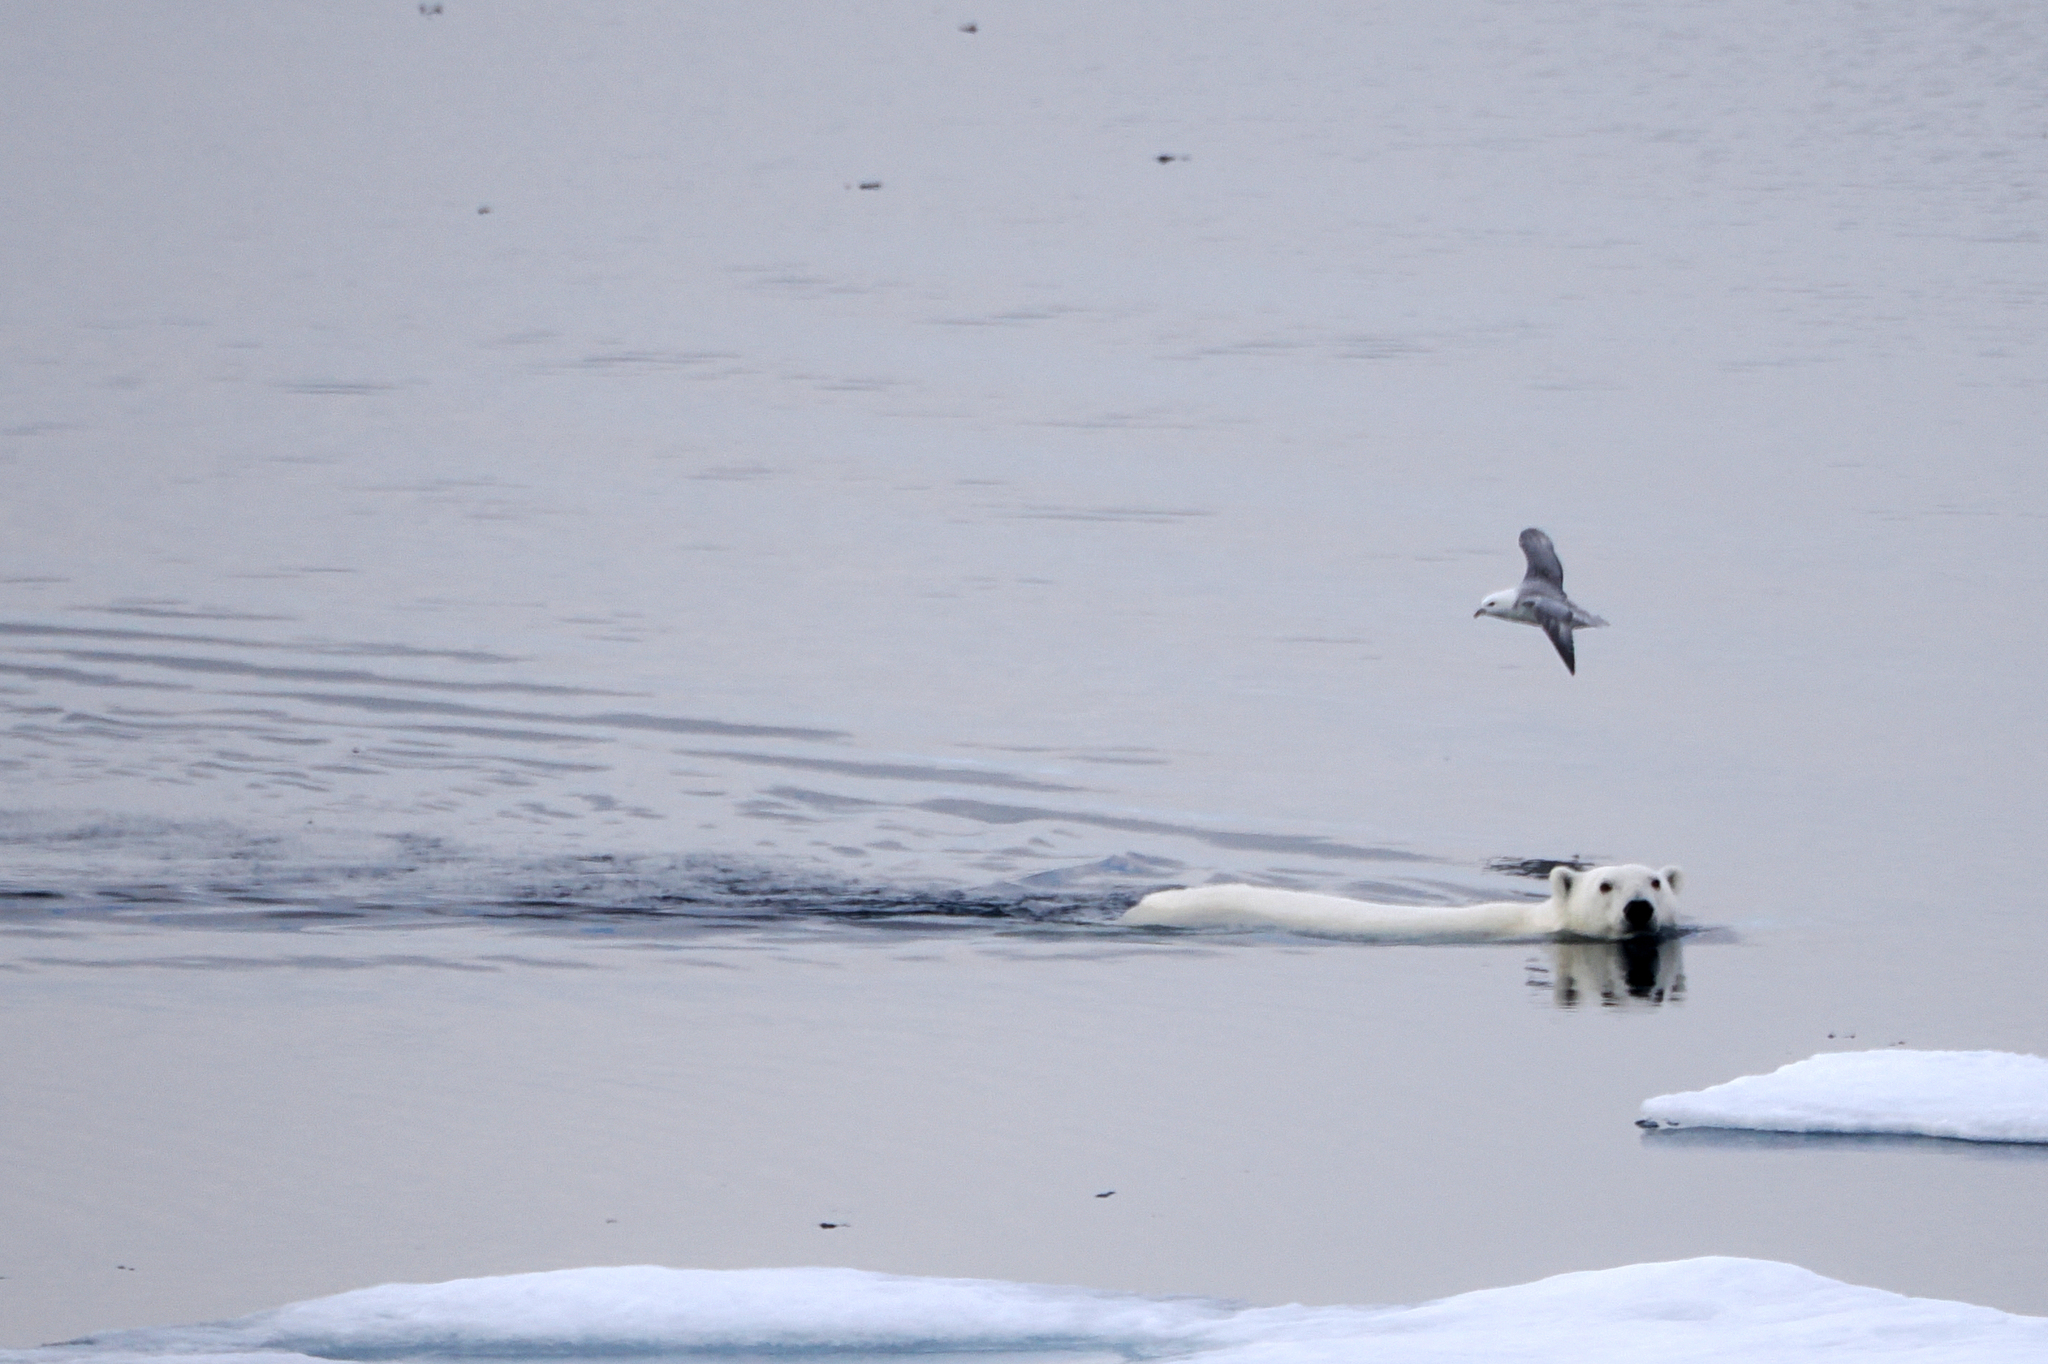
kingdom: Animalia
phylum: Chordata
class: Aves
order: Procellariiformes
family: Procellariidae
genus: Fulmarus
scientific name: Fulmarus glacialis
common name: Northern fulmar
